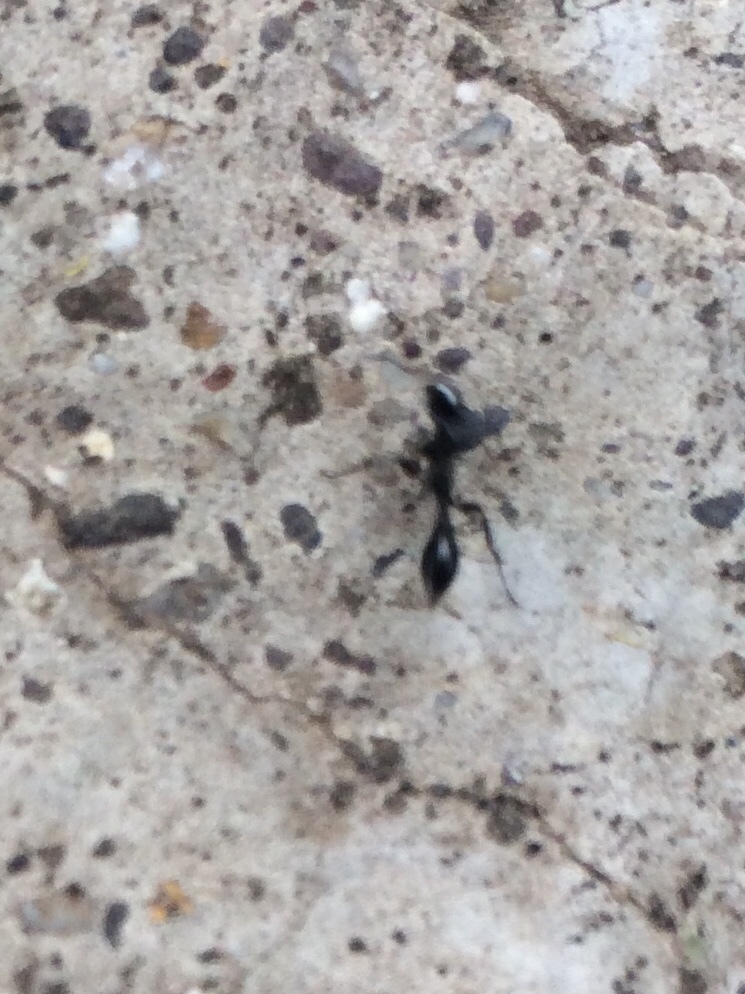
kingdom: Animalia
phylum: Arthropoda
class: Insecta
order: Hymenoptera
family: Formicidae
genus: Tetraponera
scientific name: Tetraponera nigra
